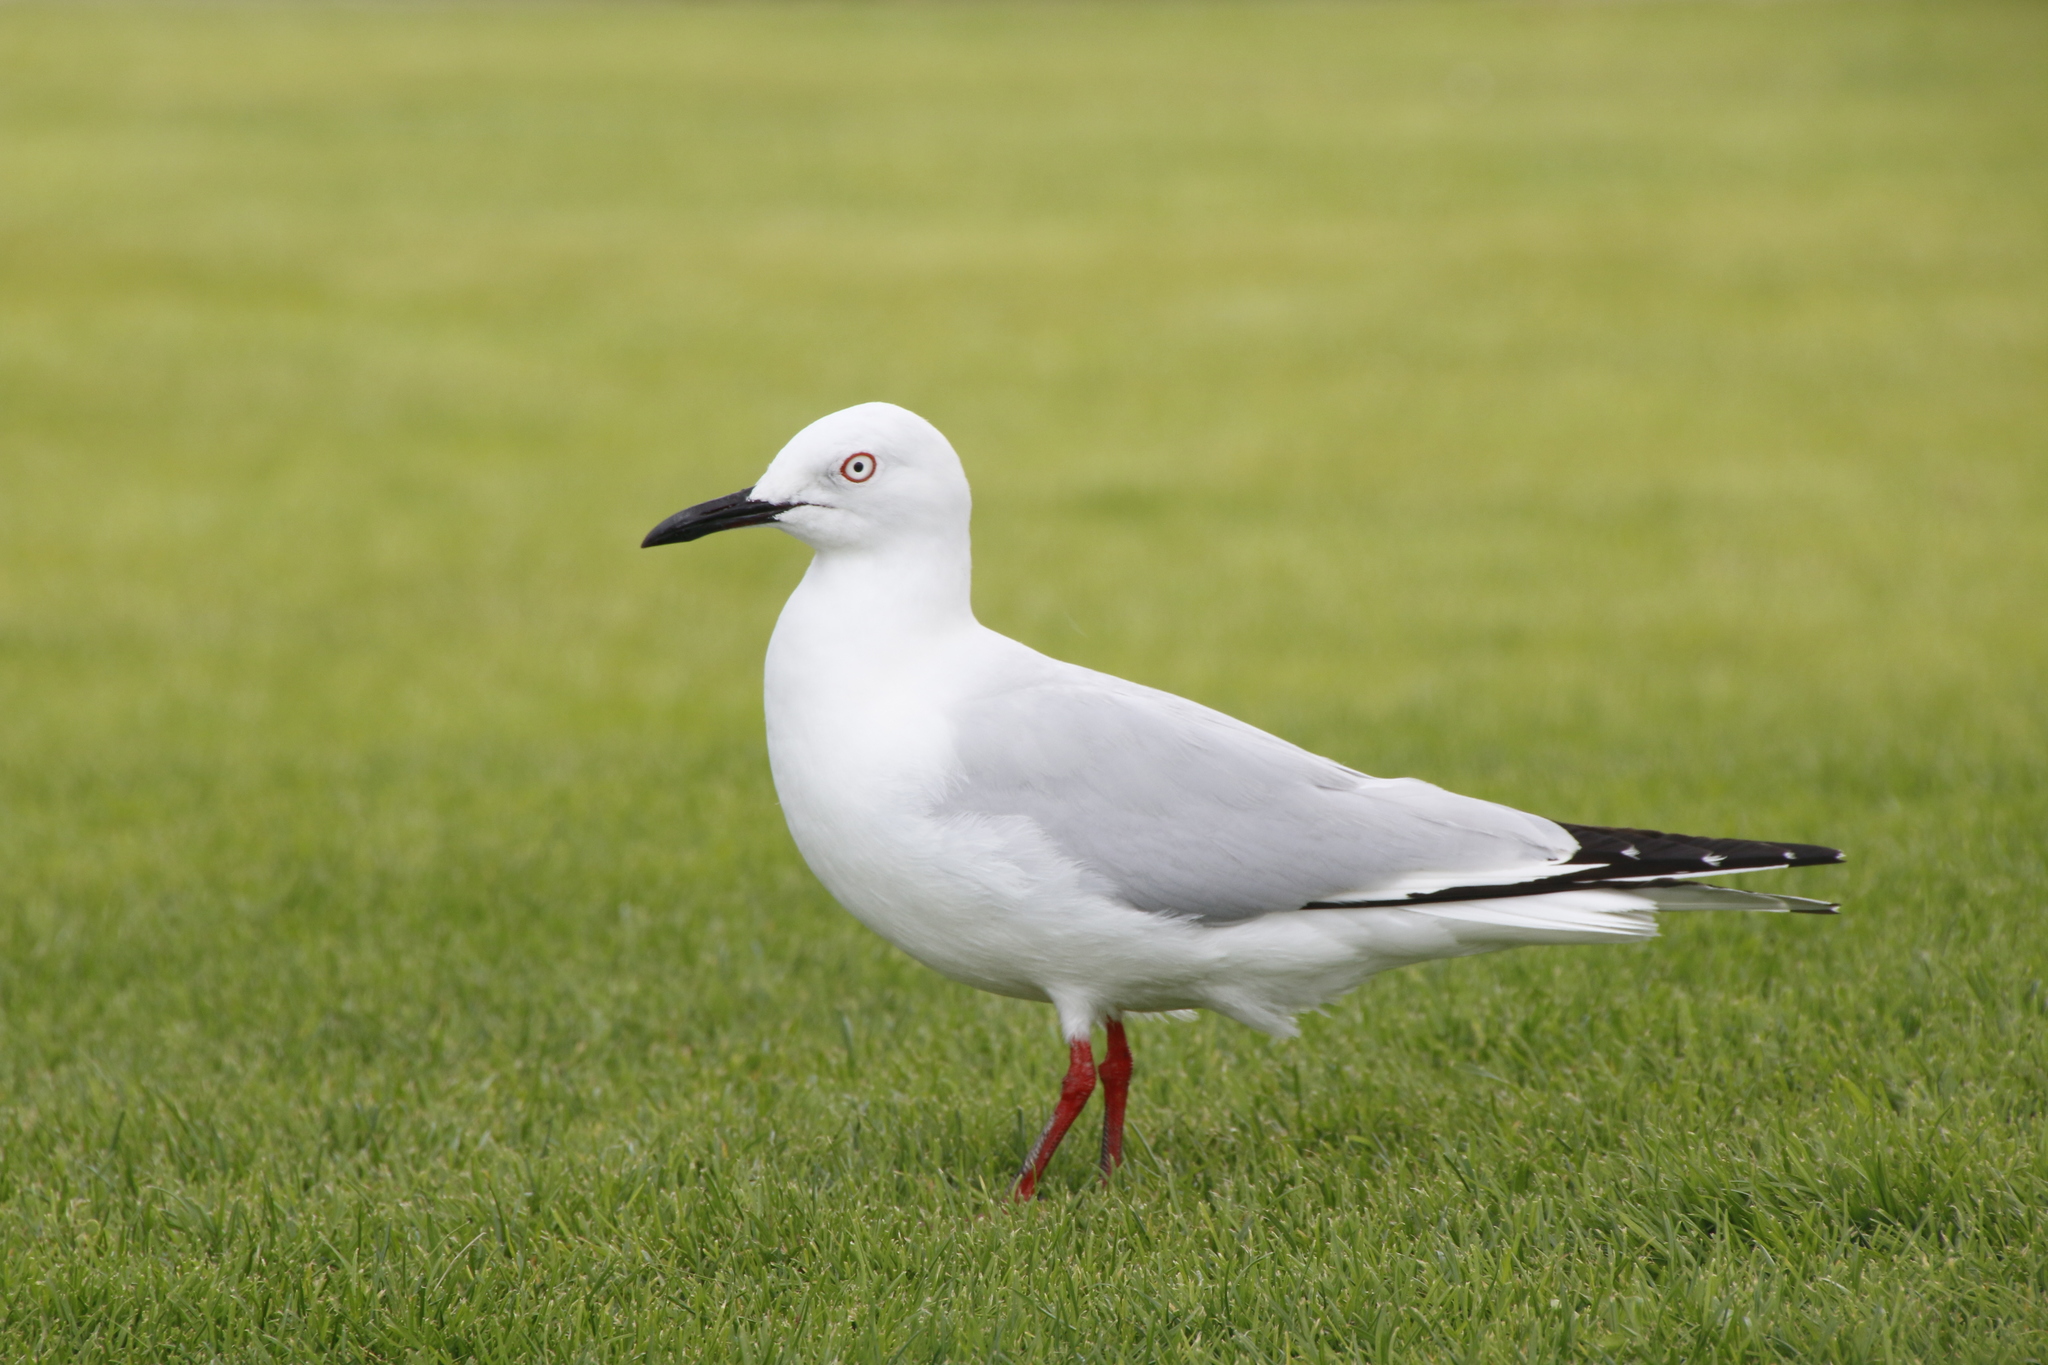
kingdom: Animalia
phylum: Chordata
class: Aves
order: Charadriiformes
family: Laridae
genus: Chroicocephalus
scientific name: Chroicocephalus bulleri
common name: Black-billed gull
